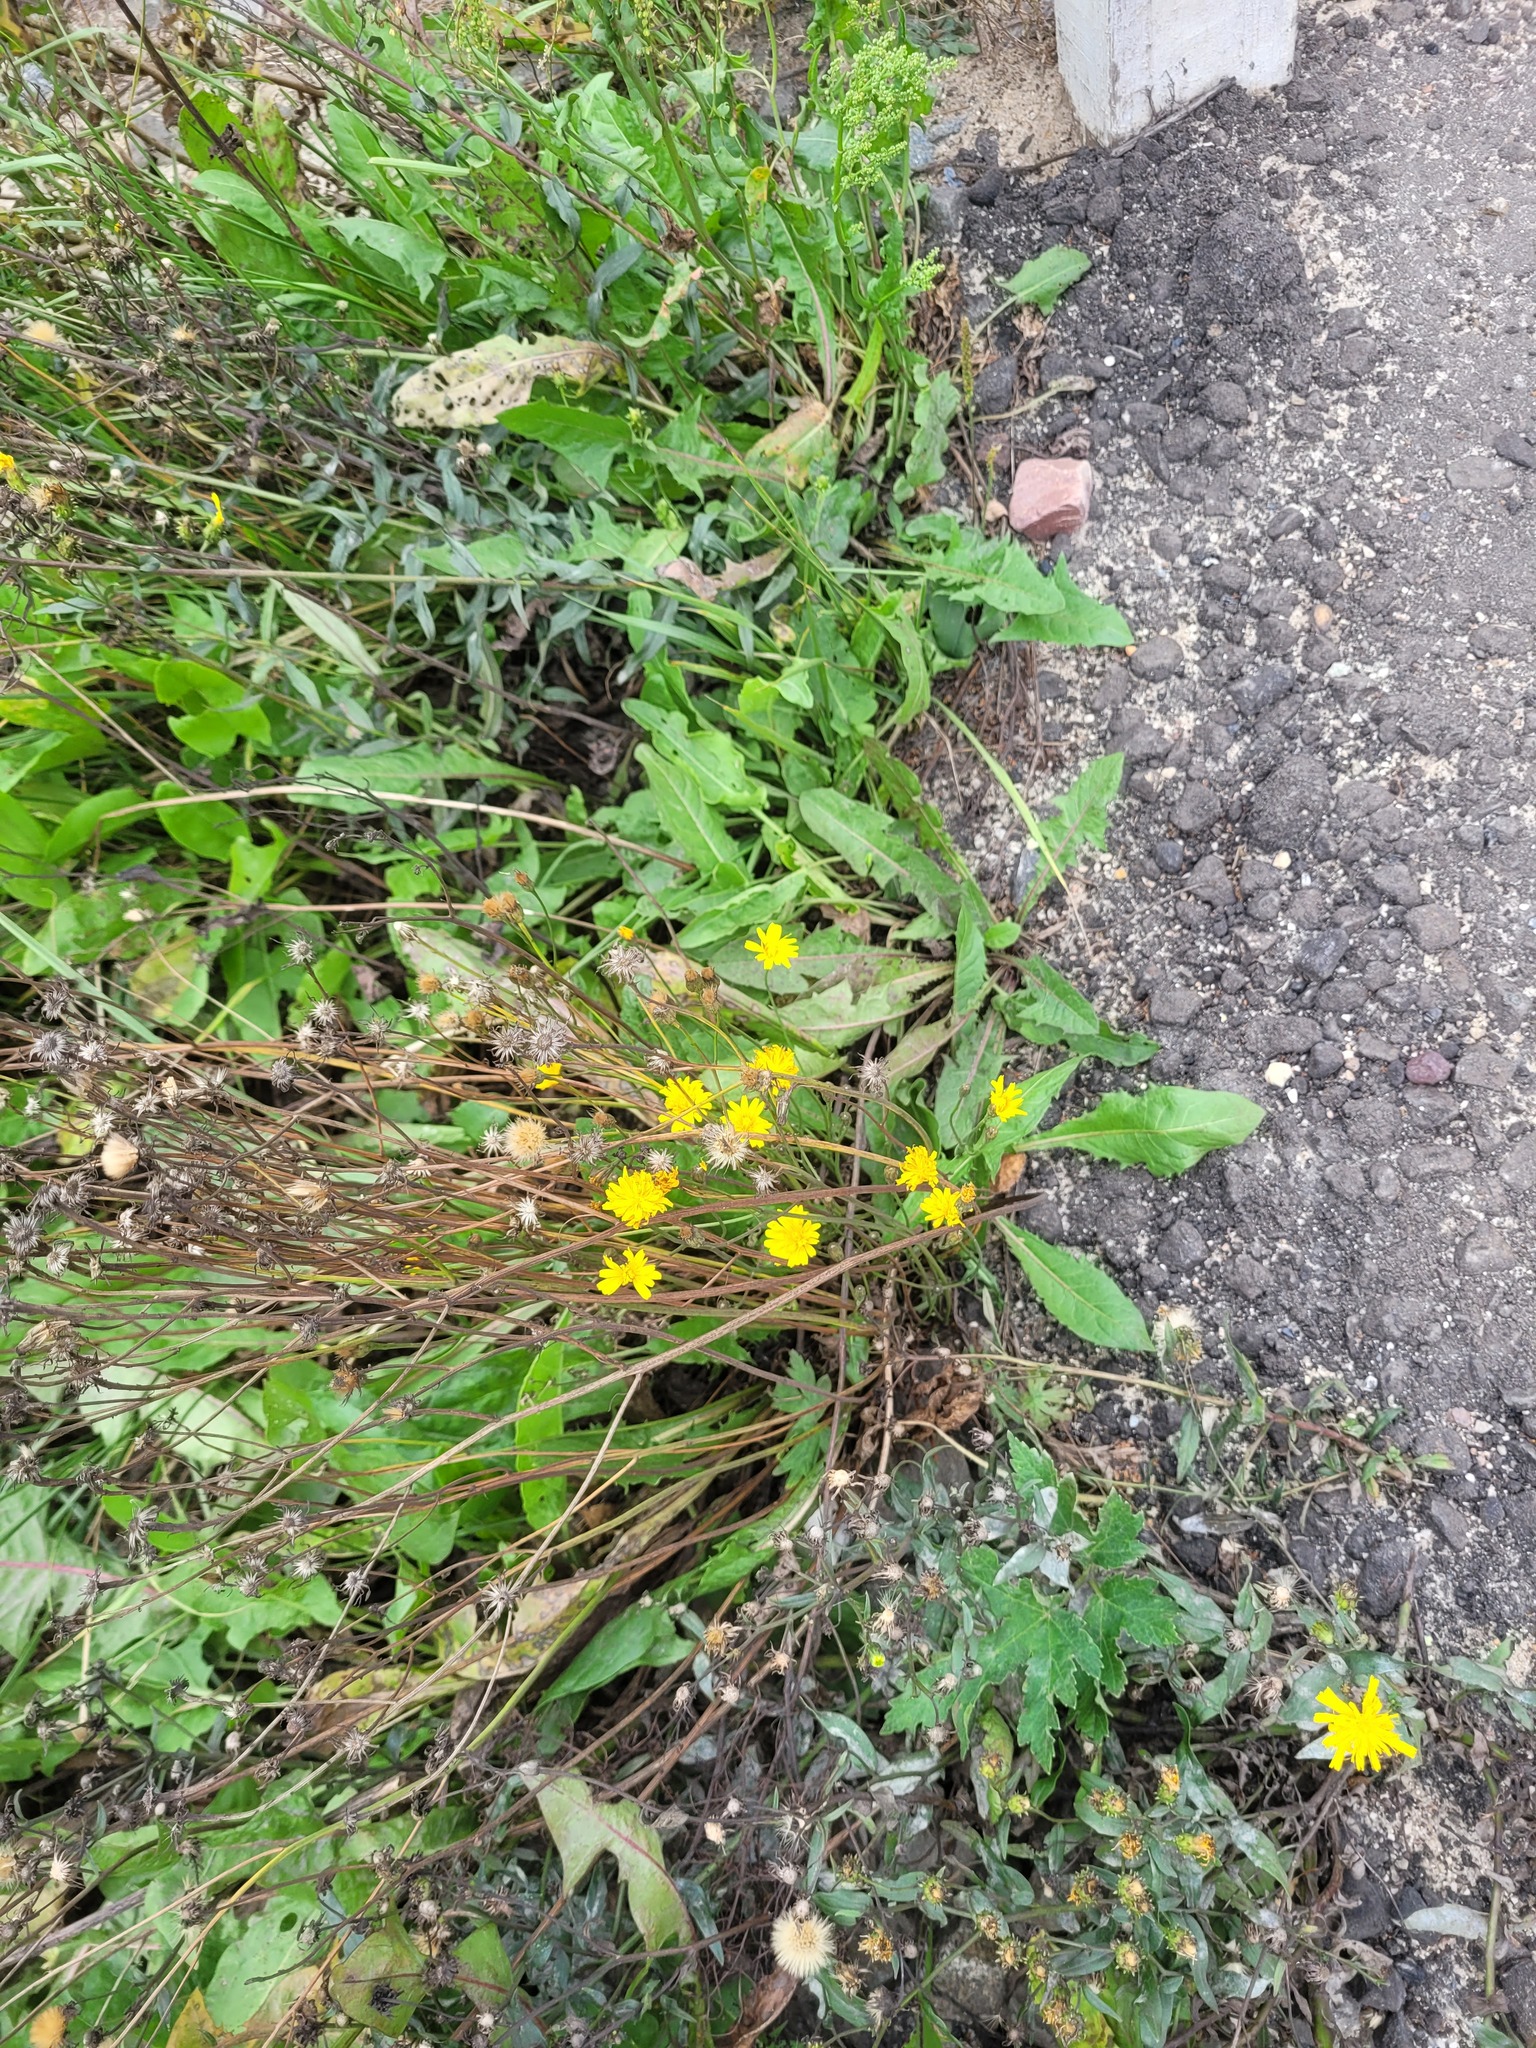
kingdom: Plantae
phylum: Tracheophyta
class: Magnoliopsida
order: Asterales
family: Asteraceae
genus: Scorzoneroides
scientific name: Scorzoneroides autumnalis
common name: Autumn hawkbit
